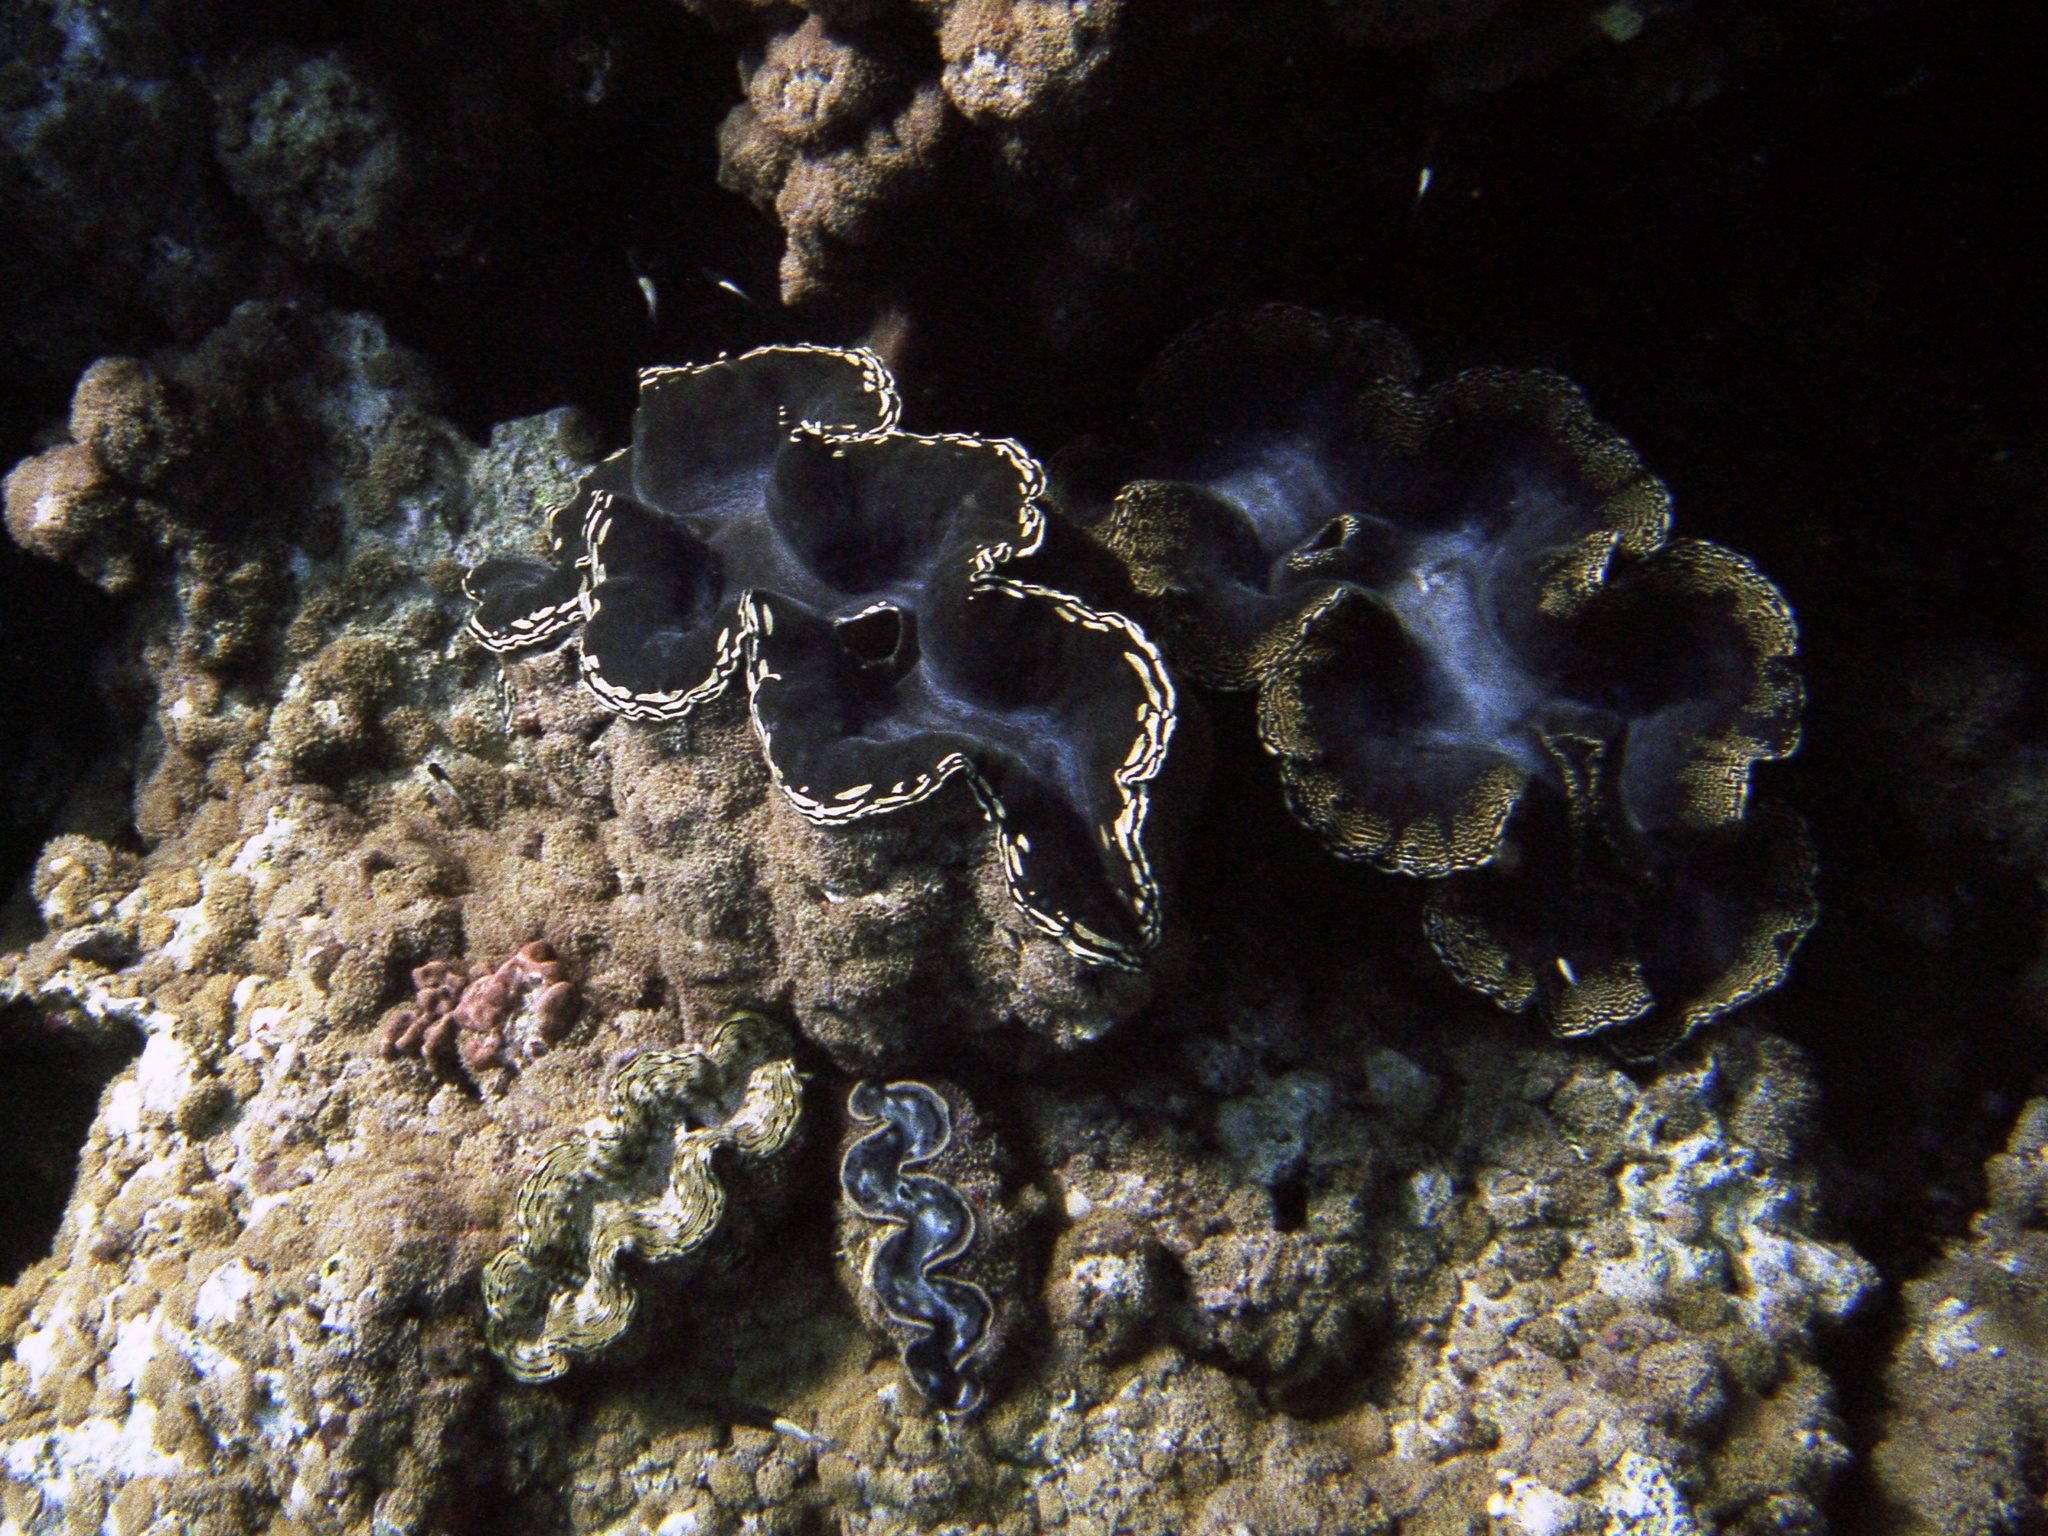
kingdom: Animalia
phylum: Mollusca
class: Bivalvia
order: Cardiida
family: Cardiidae
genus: Tridacna
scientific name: Tridacna squamosa
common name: Fluted clam
